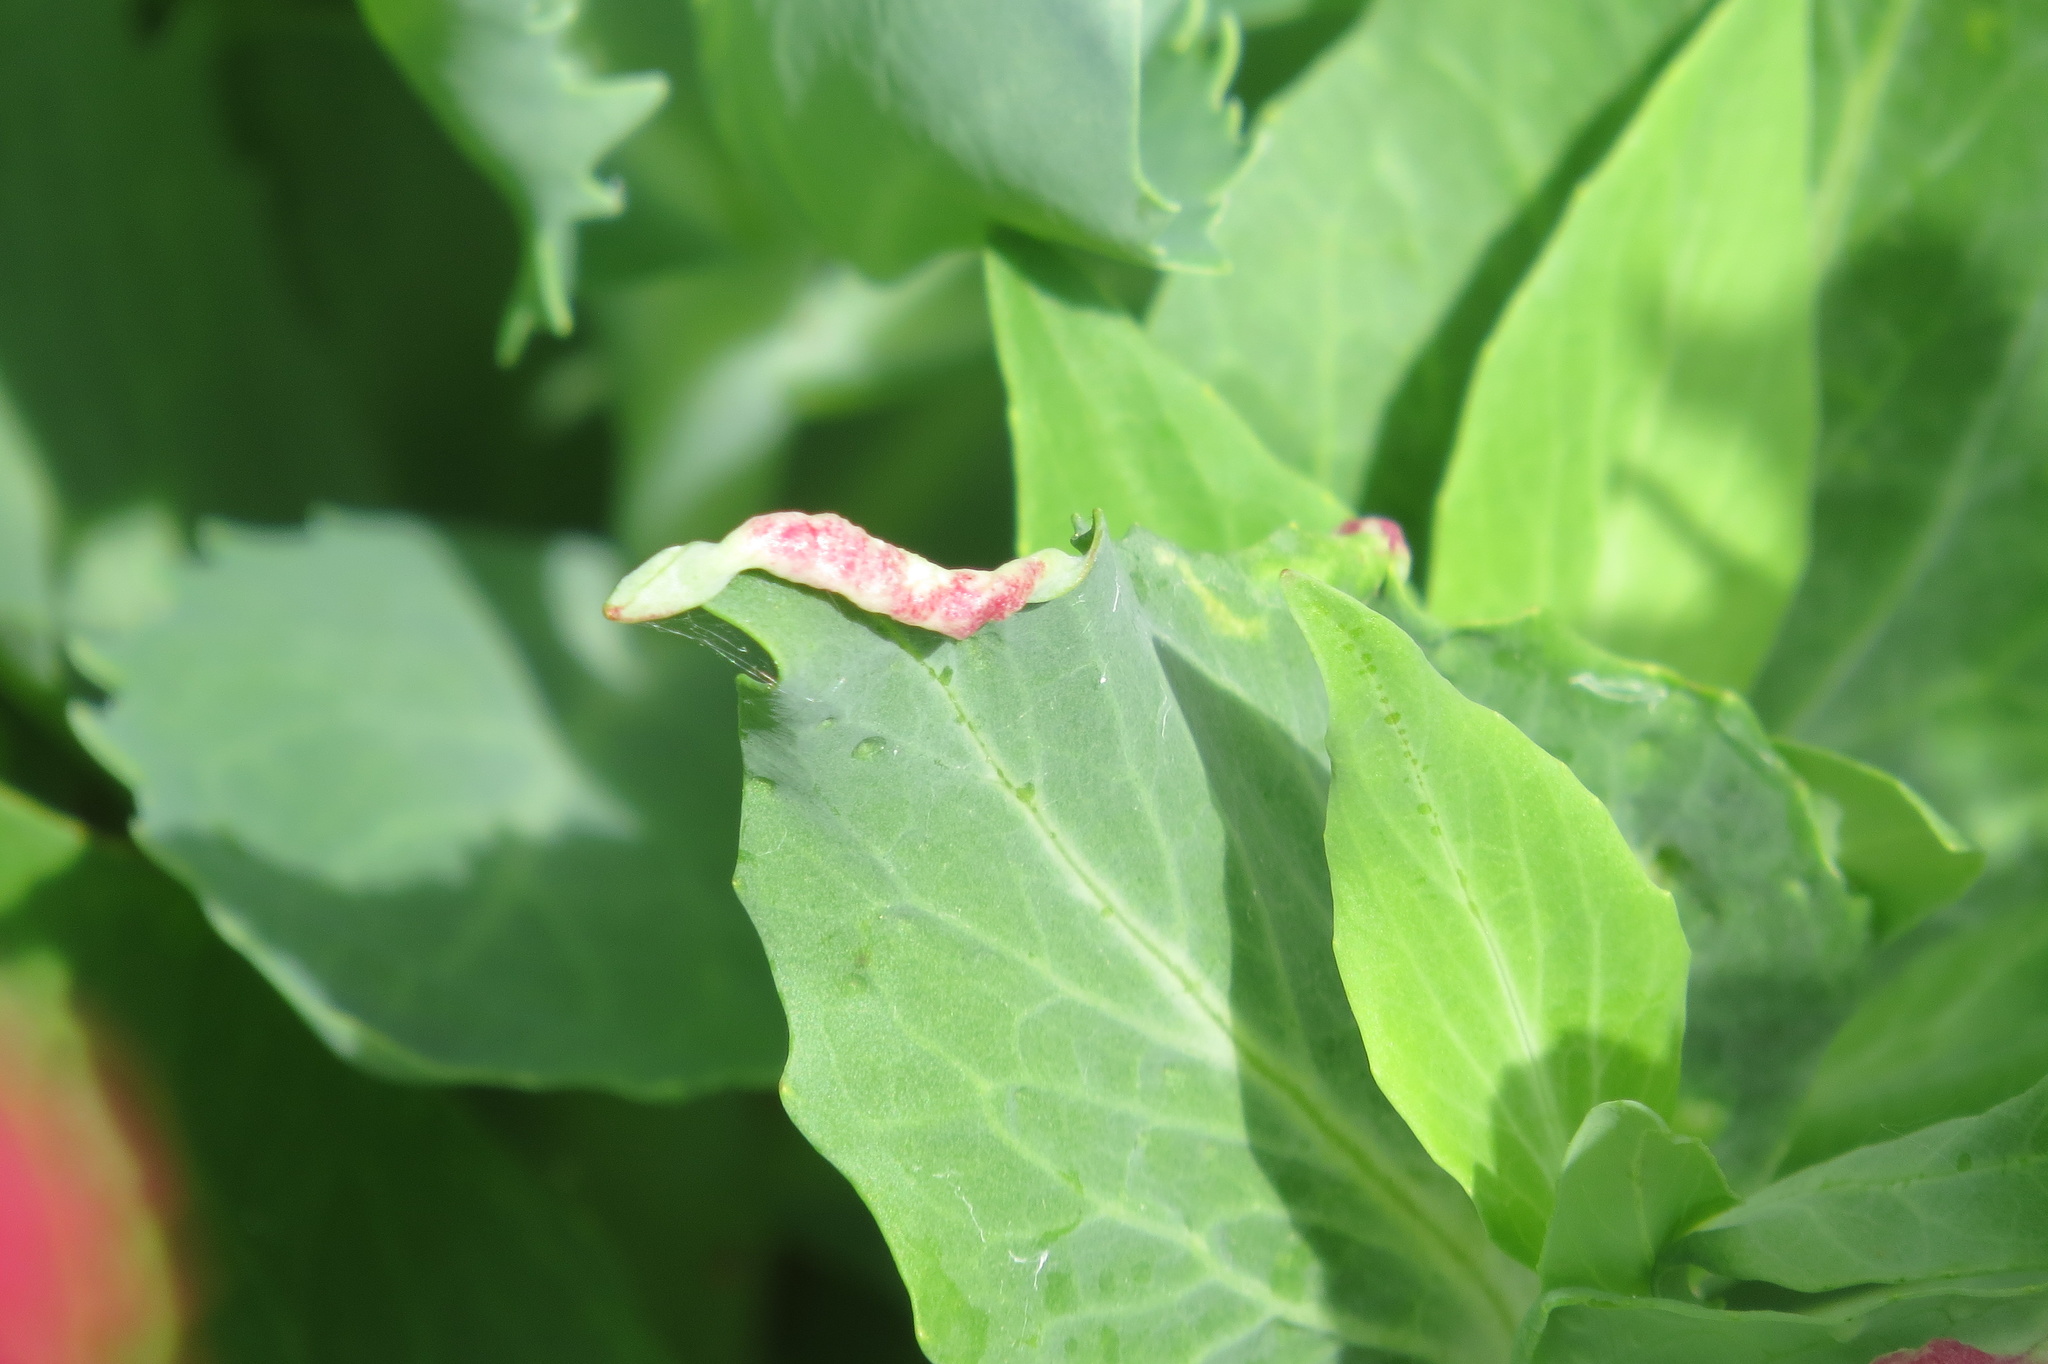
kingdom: Animalia
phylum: Arthropoda
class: Insecta
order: Hemiptera
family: Triozidae
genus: Trioza
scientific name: Trioza centranthi
